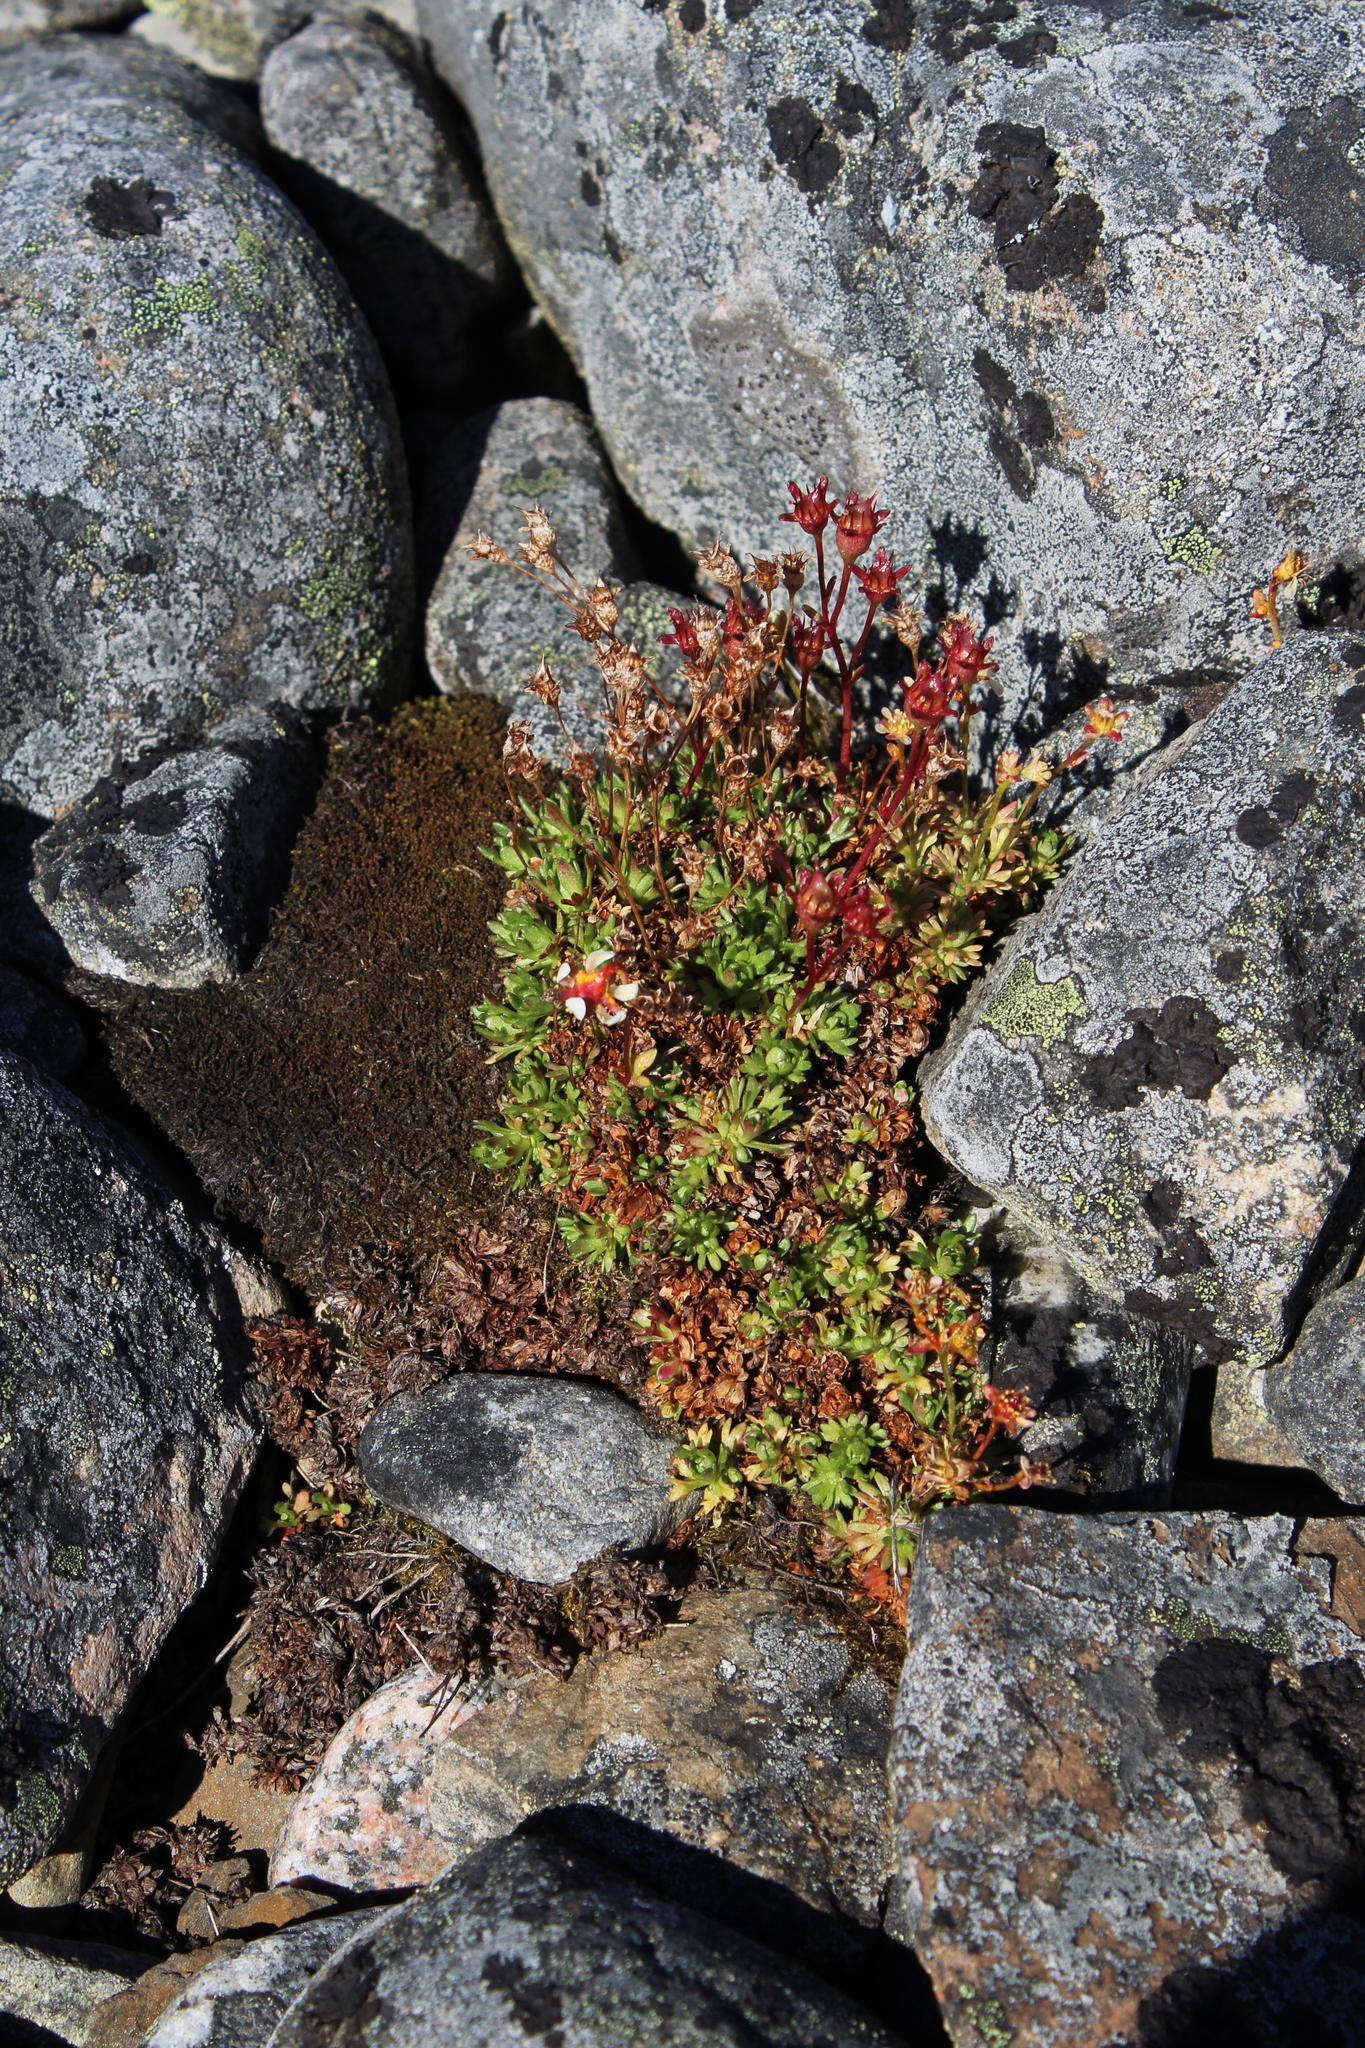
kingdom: Plantae
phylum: Tracheophyta
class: Magnoliopsida
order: Saxifragales
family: Saxifragaceae
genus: Saxifraga
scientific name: Saxifraga cespitosa
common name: Tufted saxifrage
